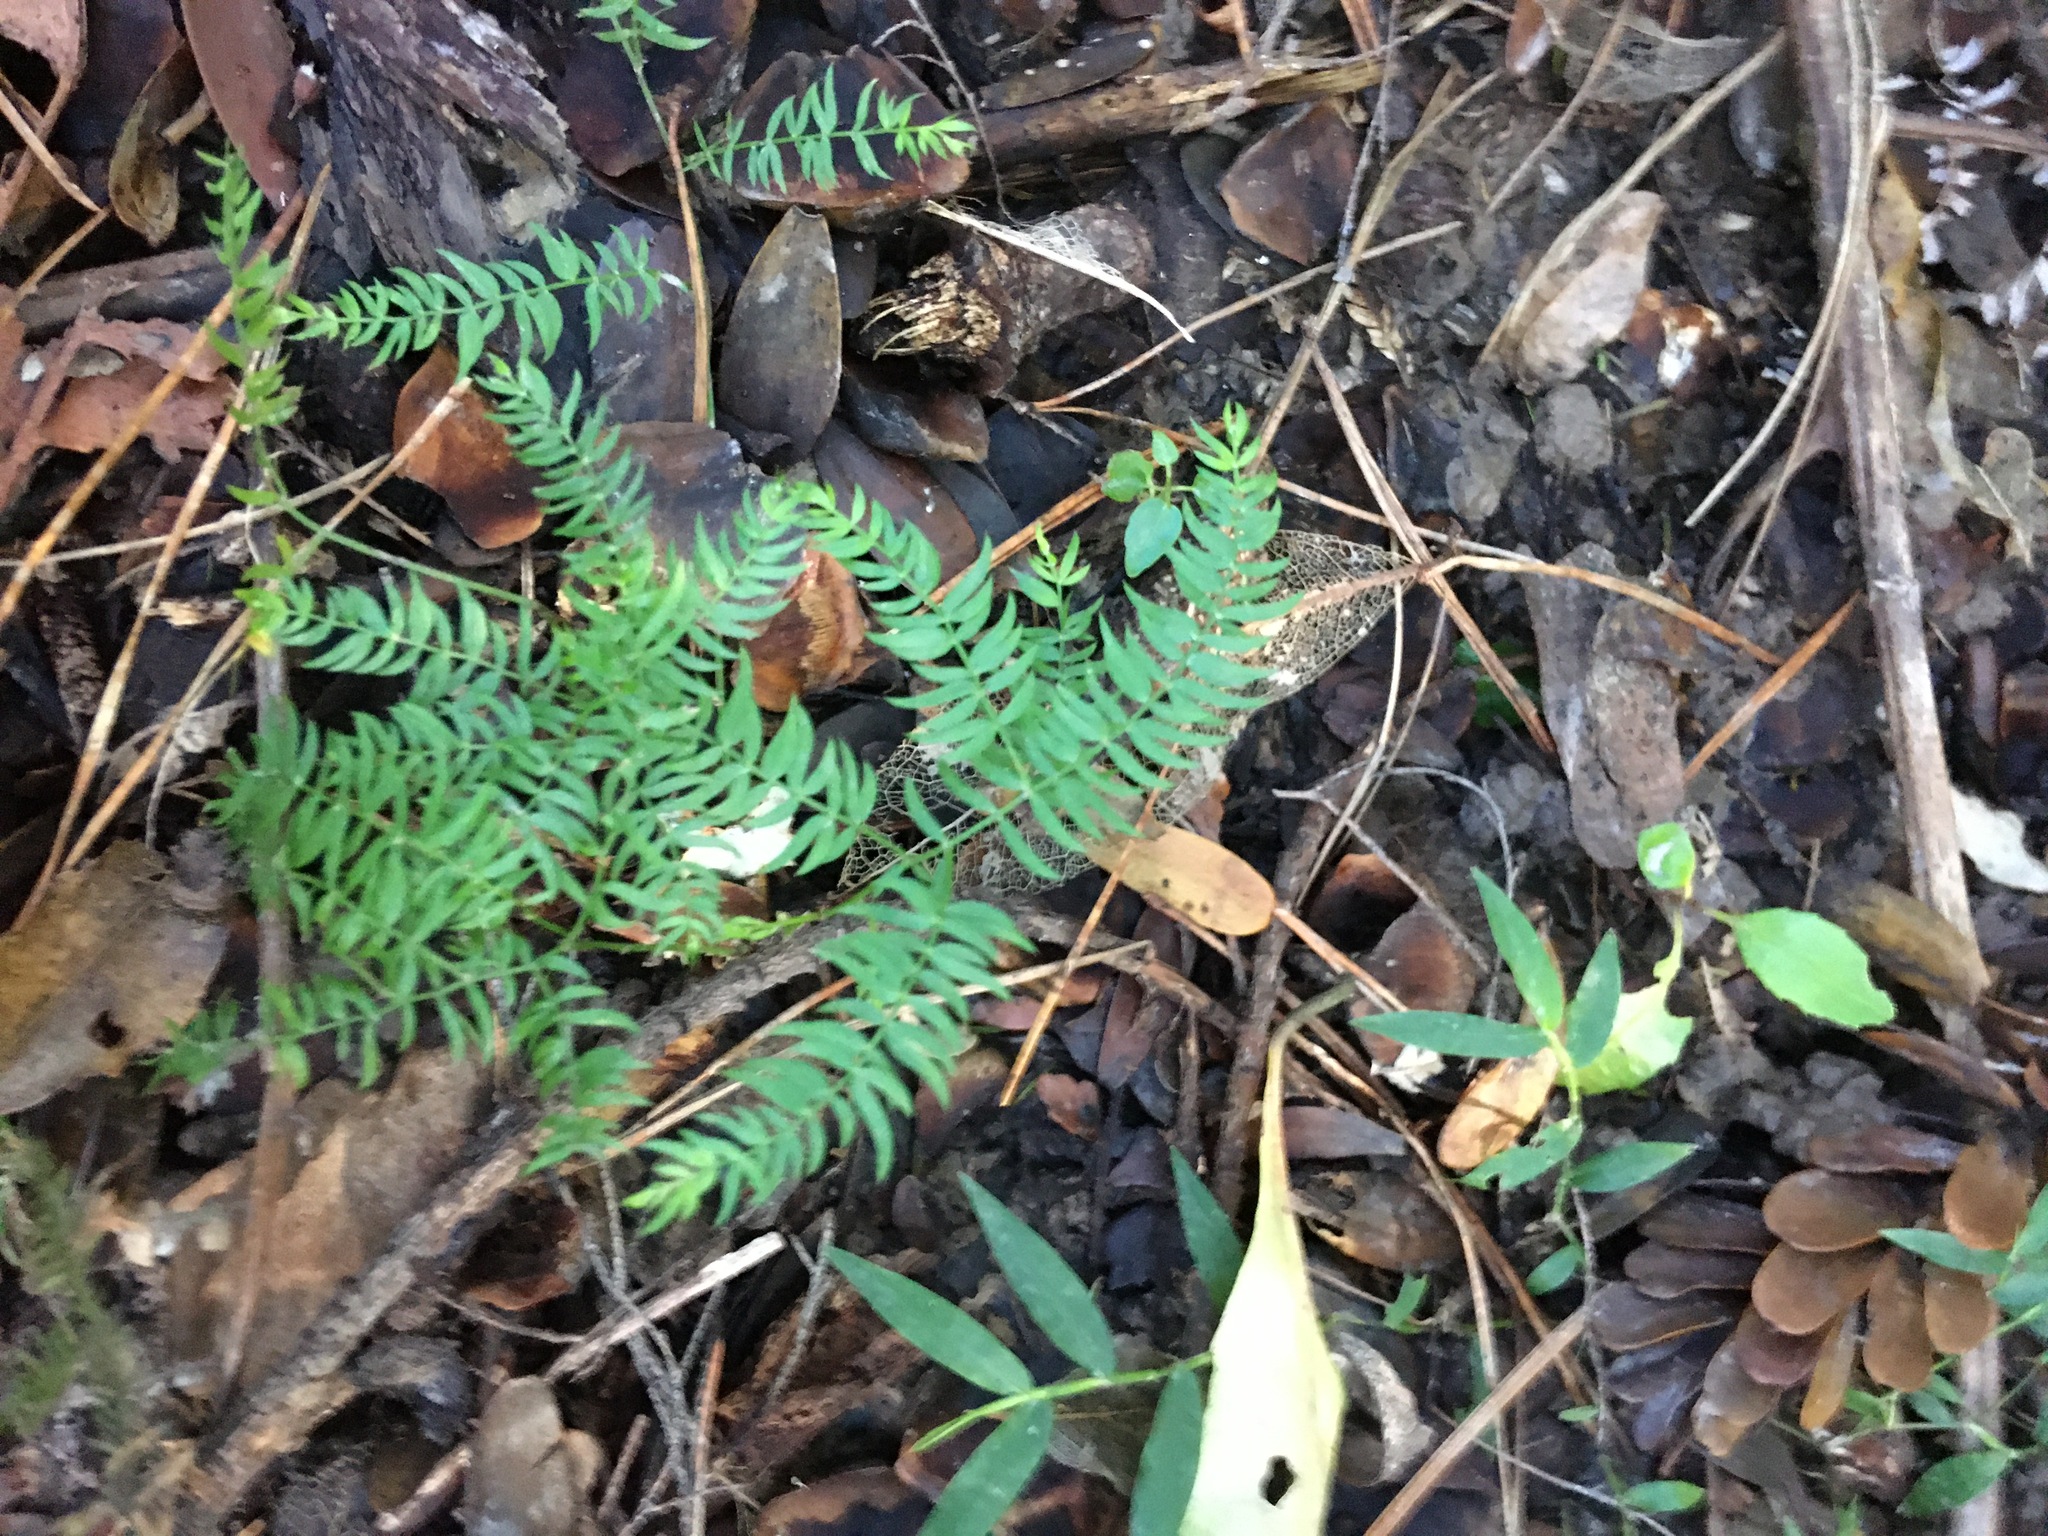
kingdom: Plantae
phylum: Tracheophyta
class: Liliopsida
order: Asparagales
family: Asparagaceae
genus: Asparagus
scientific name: Asparagus scandens
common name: Asparagus-fern
